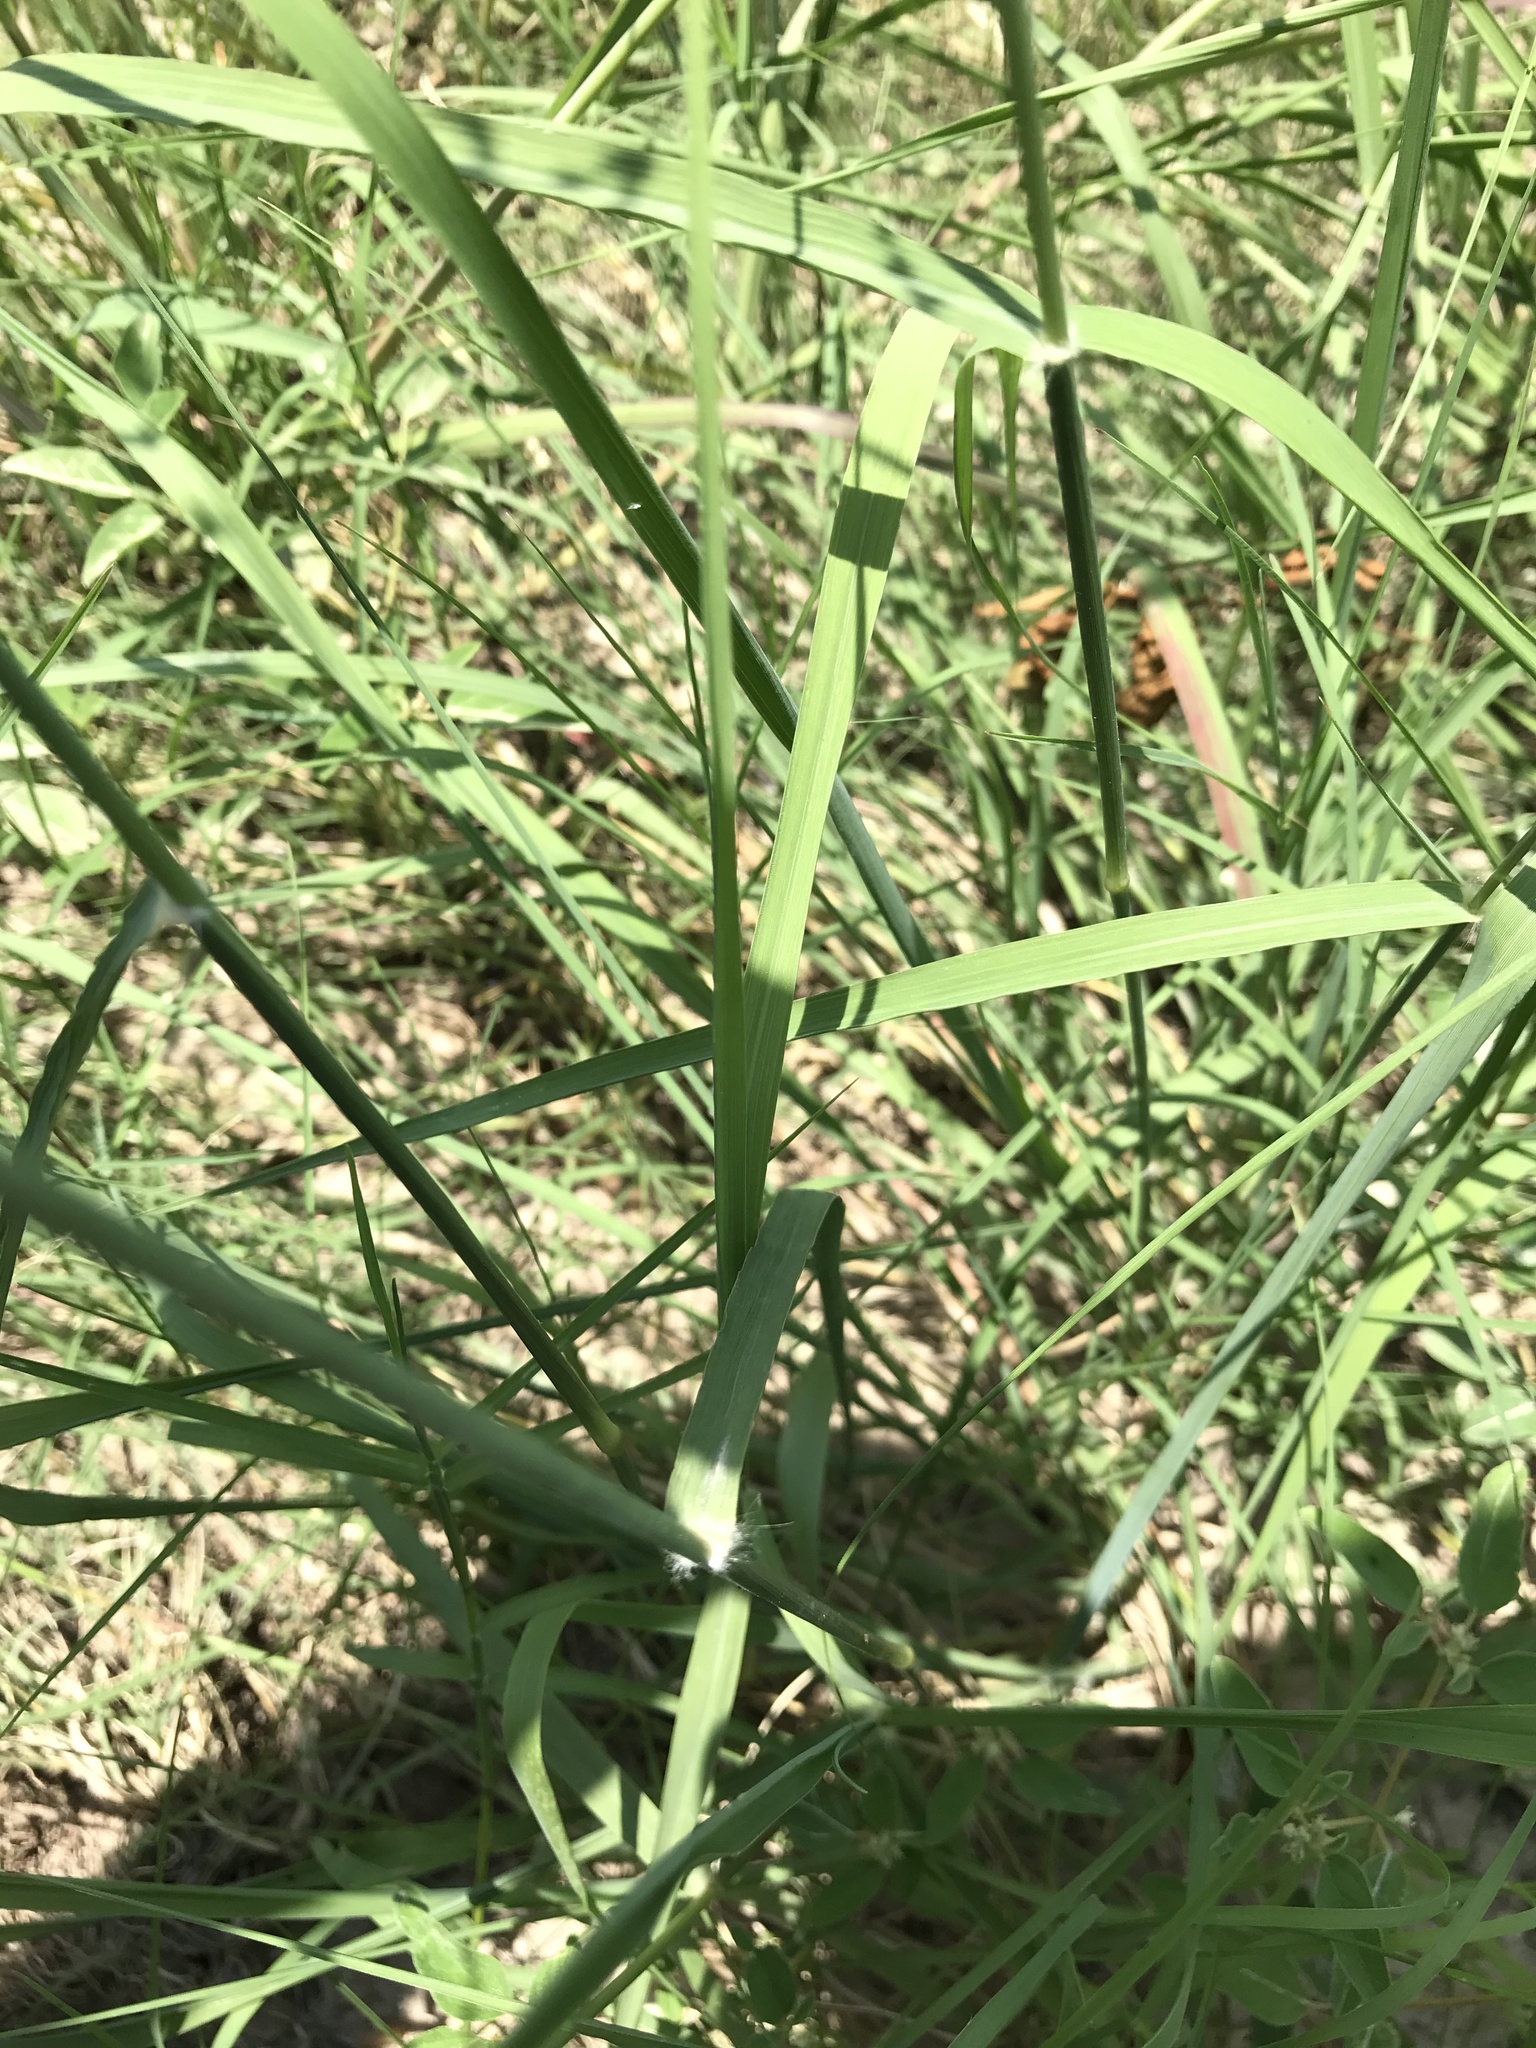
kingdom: Plantae
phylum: Tracheophyta
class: Liliopsida
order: Poales
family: Poaceae
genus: Eragrostis
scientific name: Eragrostis superba
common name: Wilman lovegrass
